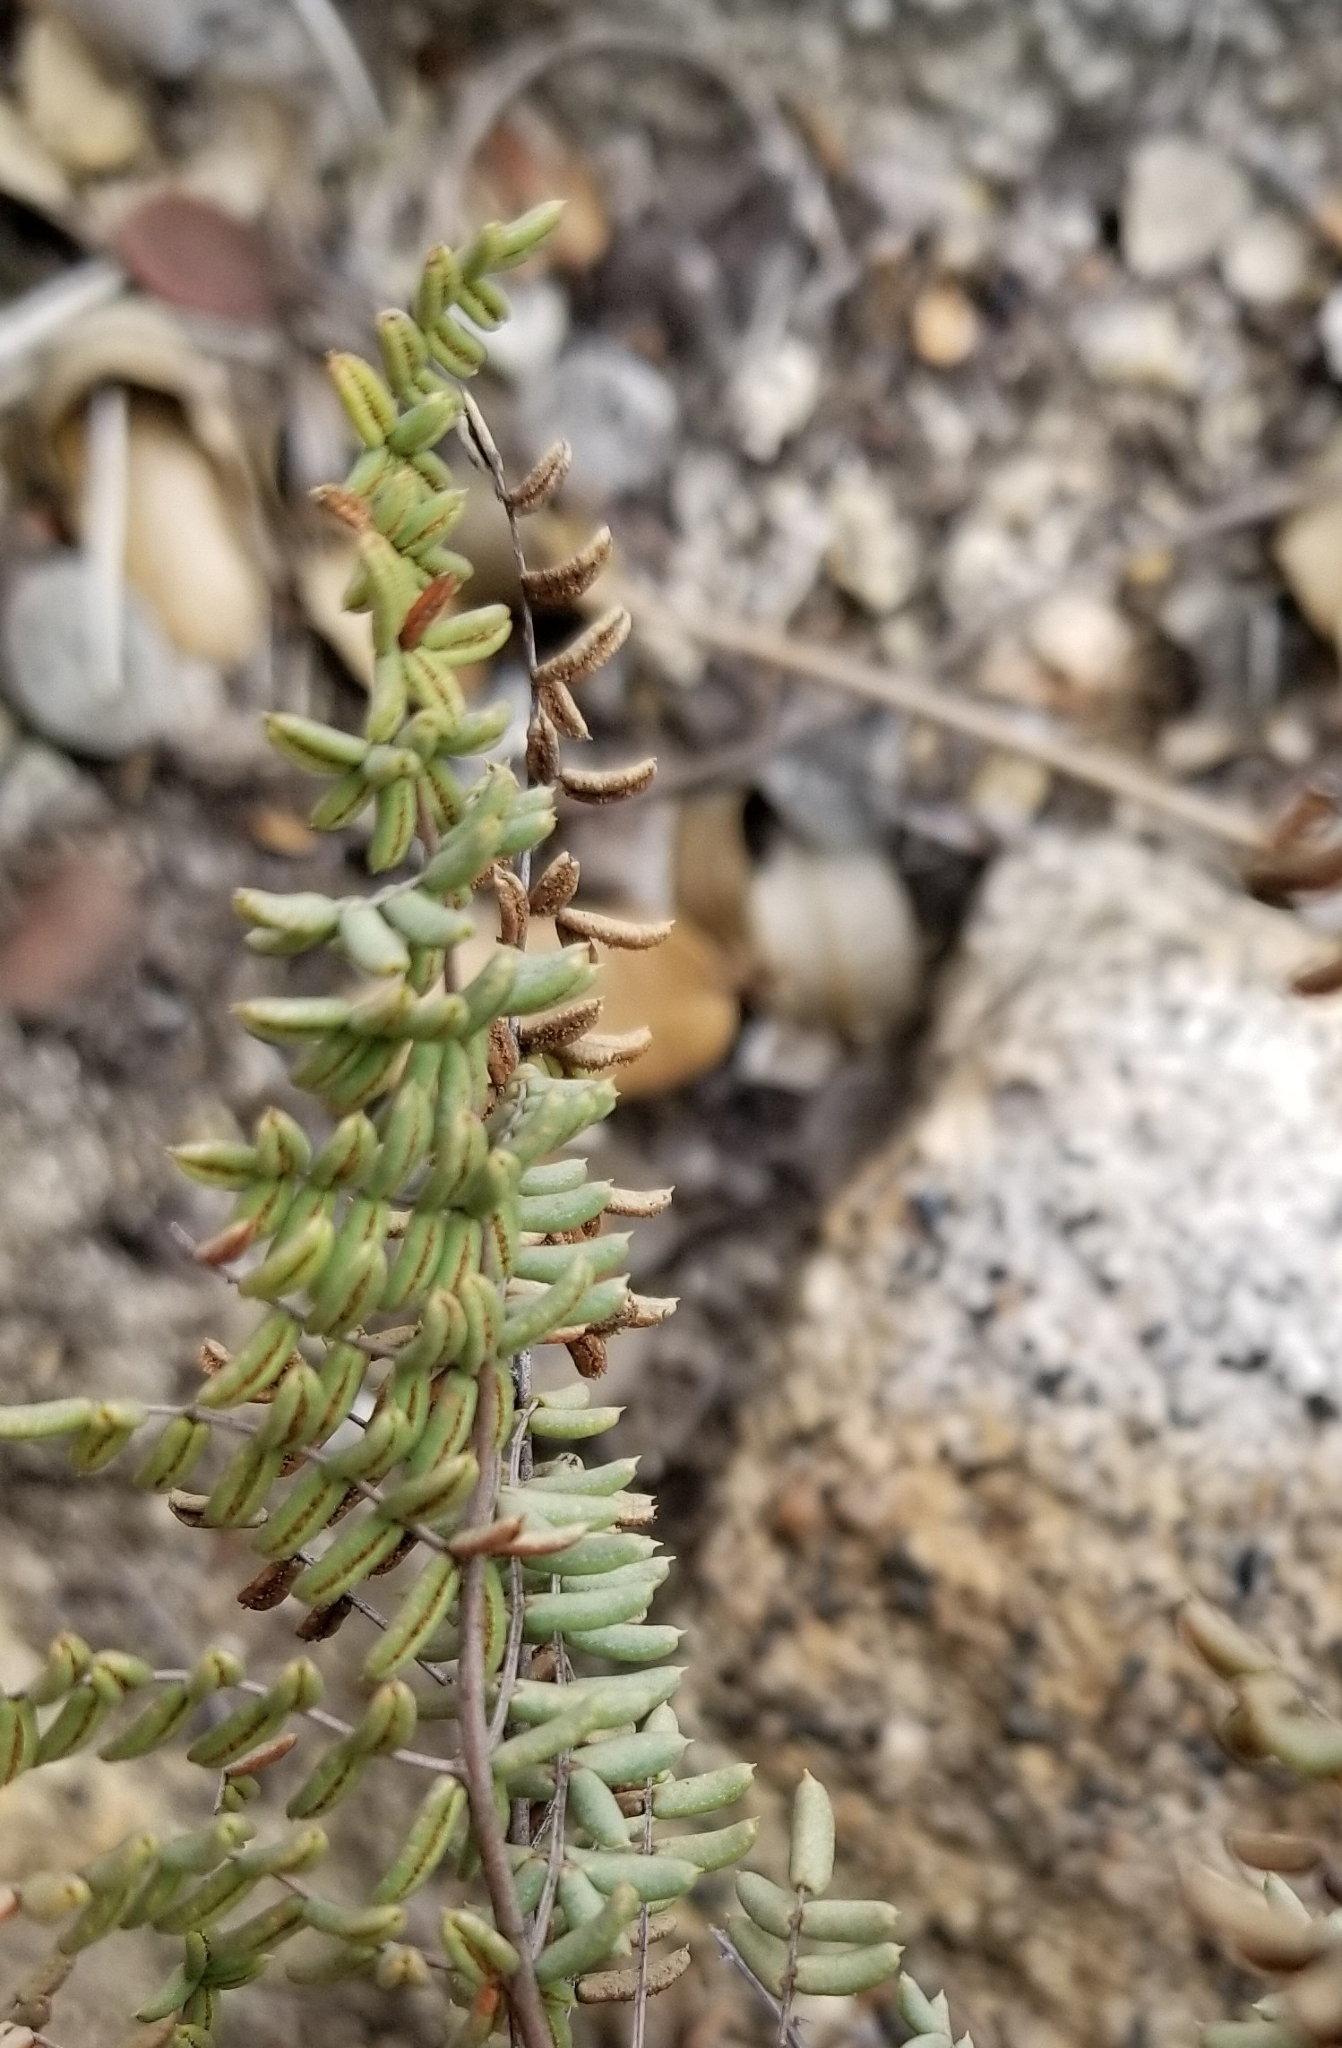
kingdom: Plantae
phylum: Tracheophyta
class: Polypodiopsida
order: Polypodiales
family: Pteridaceae
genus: Pellaea
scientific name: Pellaea mucronata
